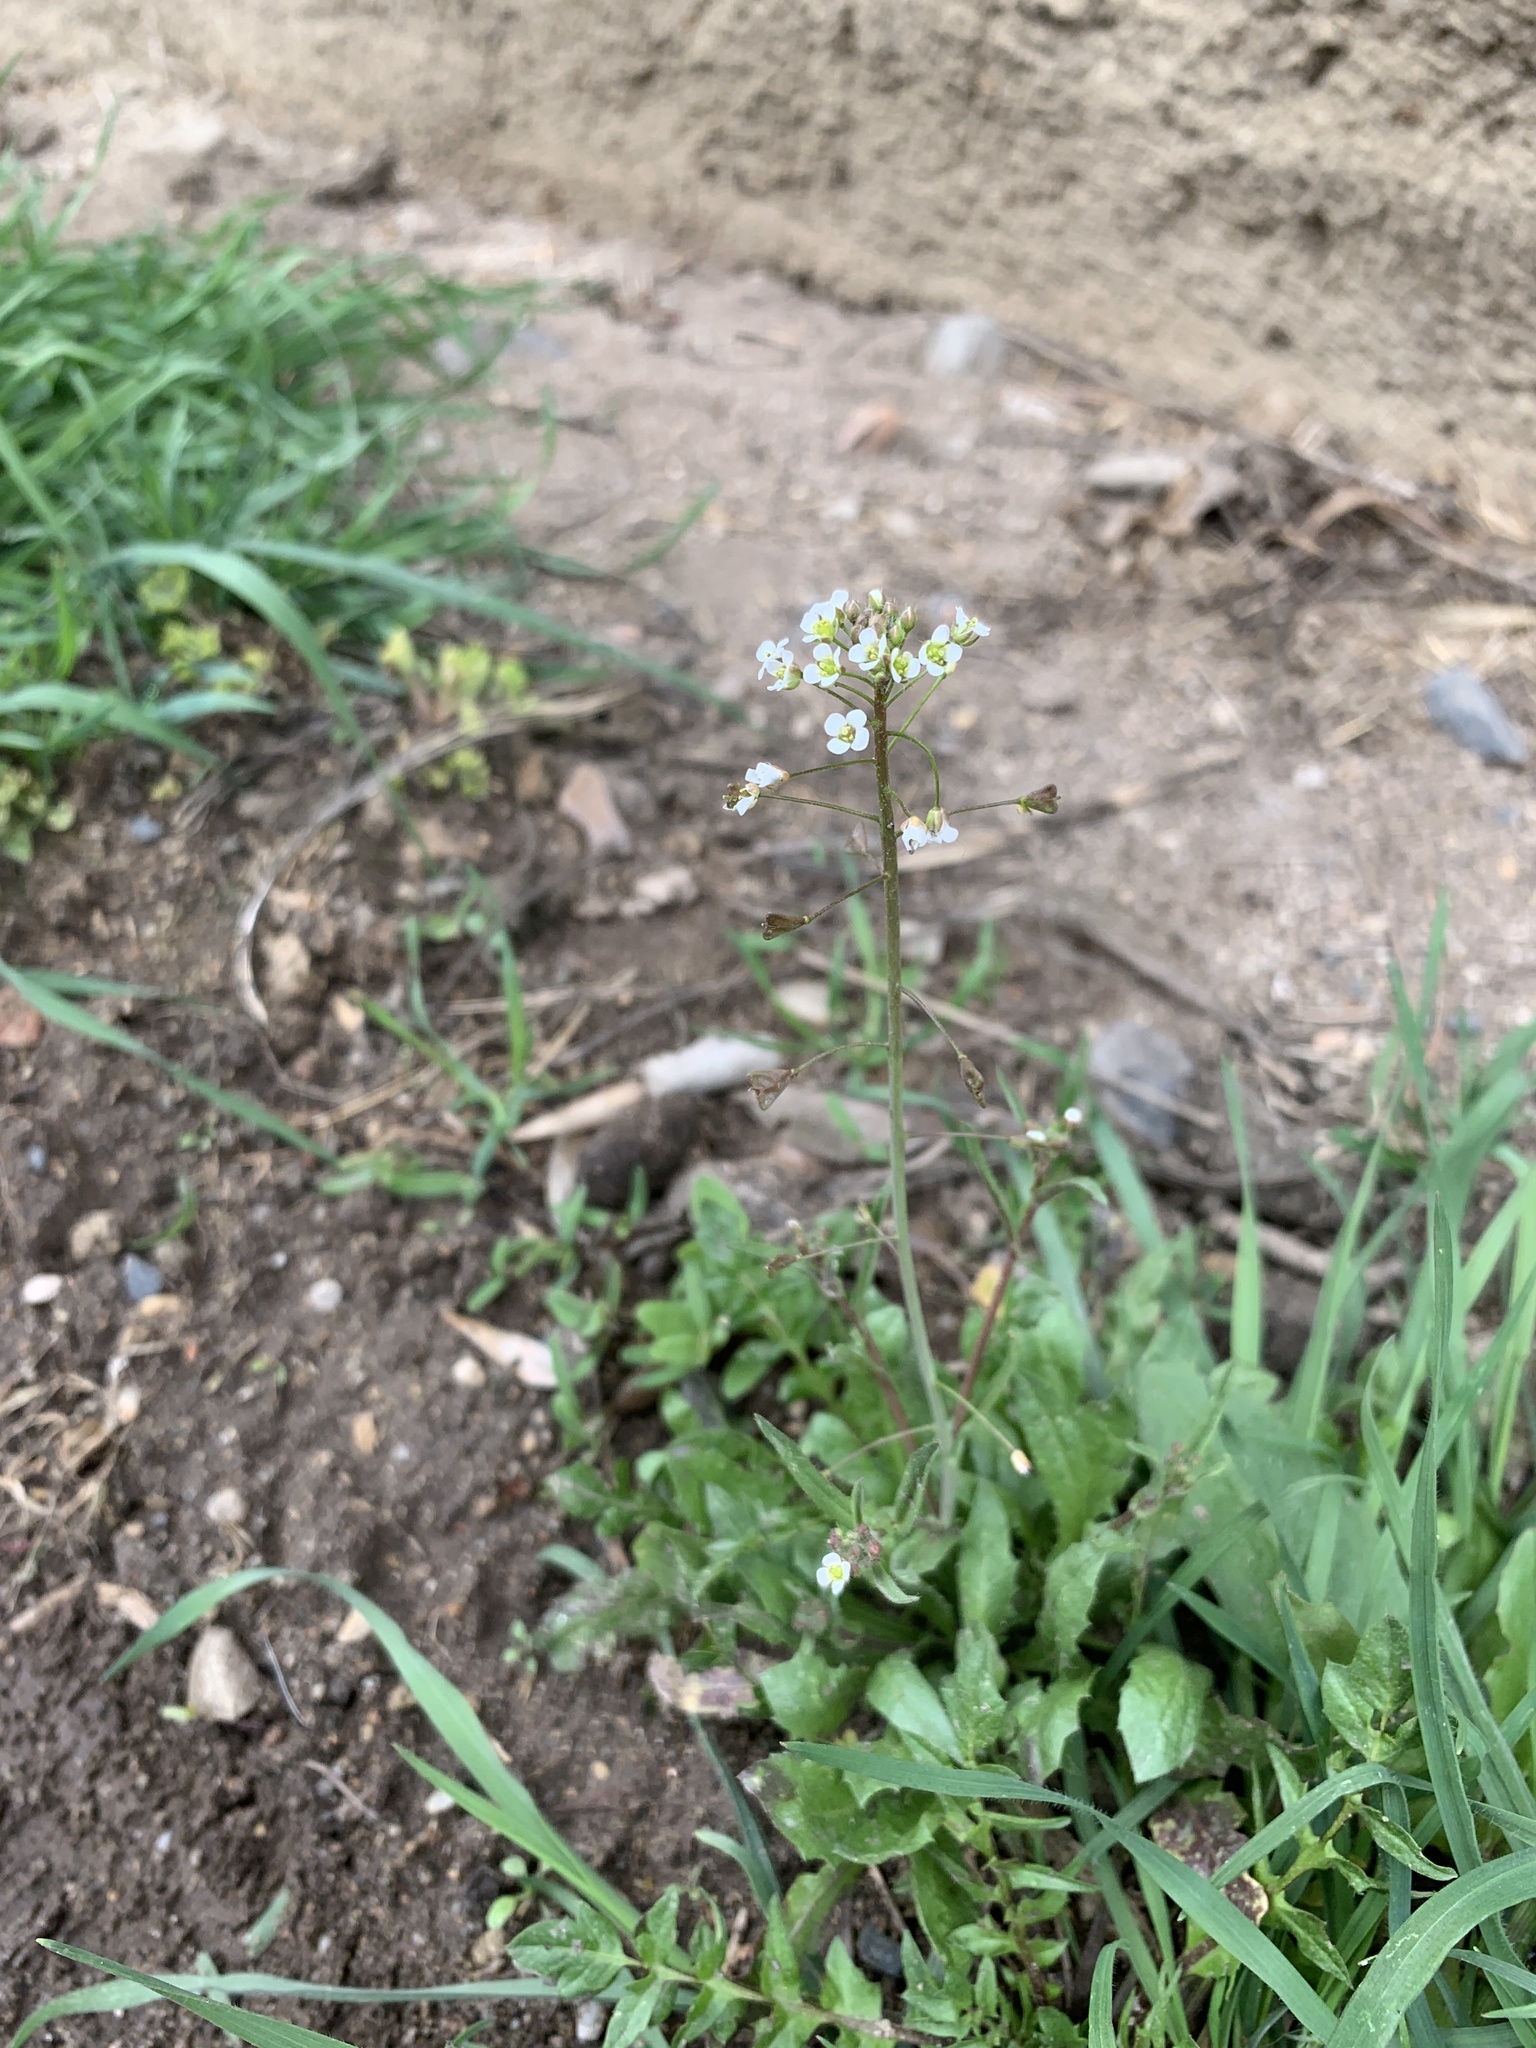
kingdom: Plantae
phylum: Tracheophyta
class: Magnoliopsida
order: Brassicales
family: Brassicaceae
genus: Capsella
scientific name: Capsella bursa-pastoris
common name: Shepherd's purse
